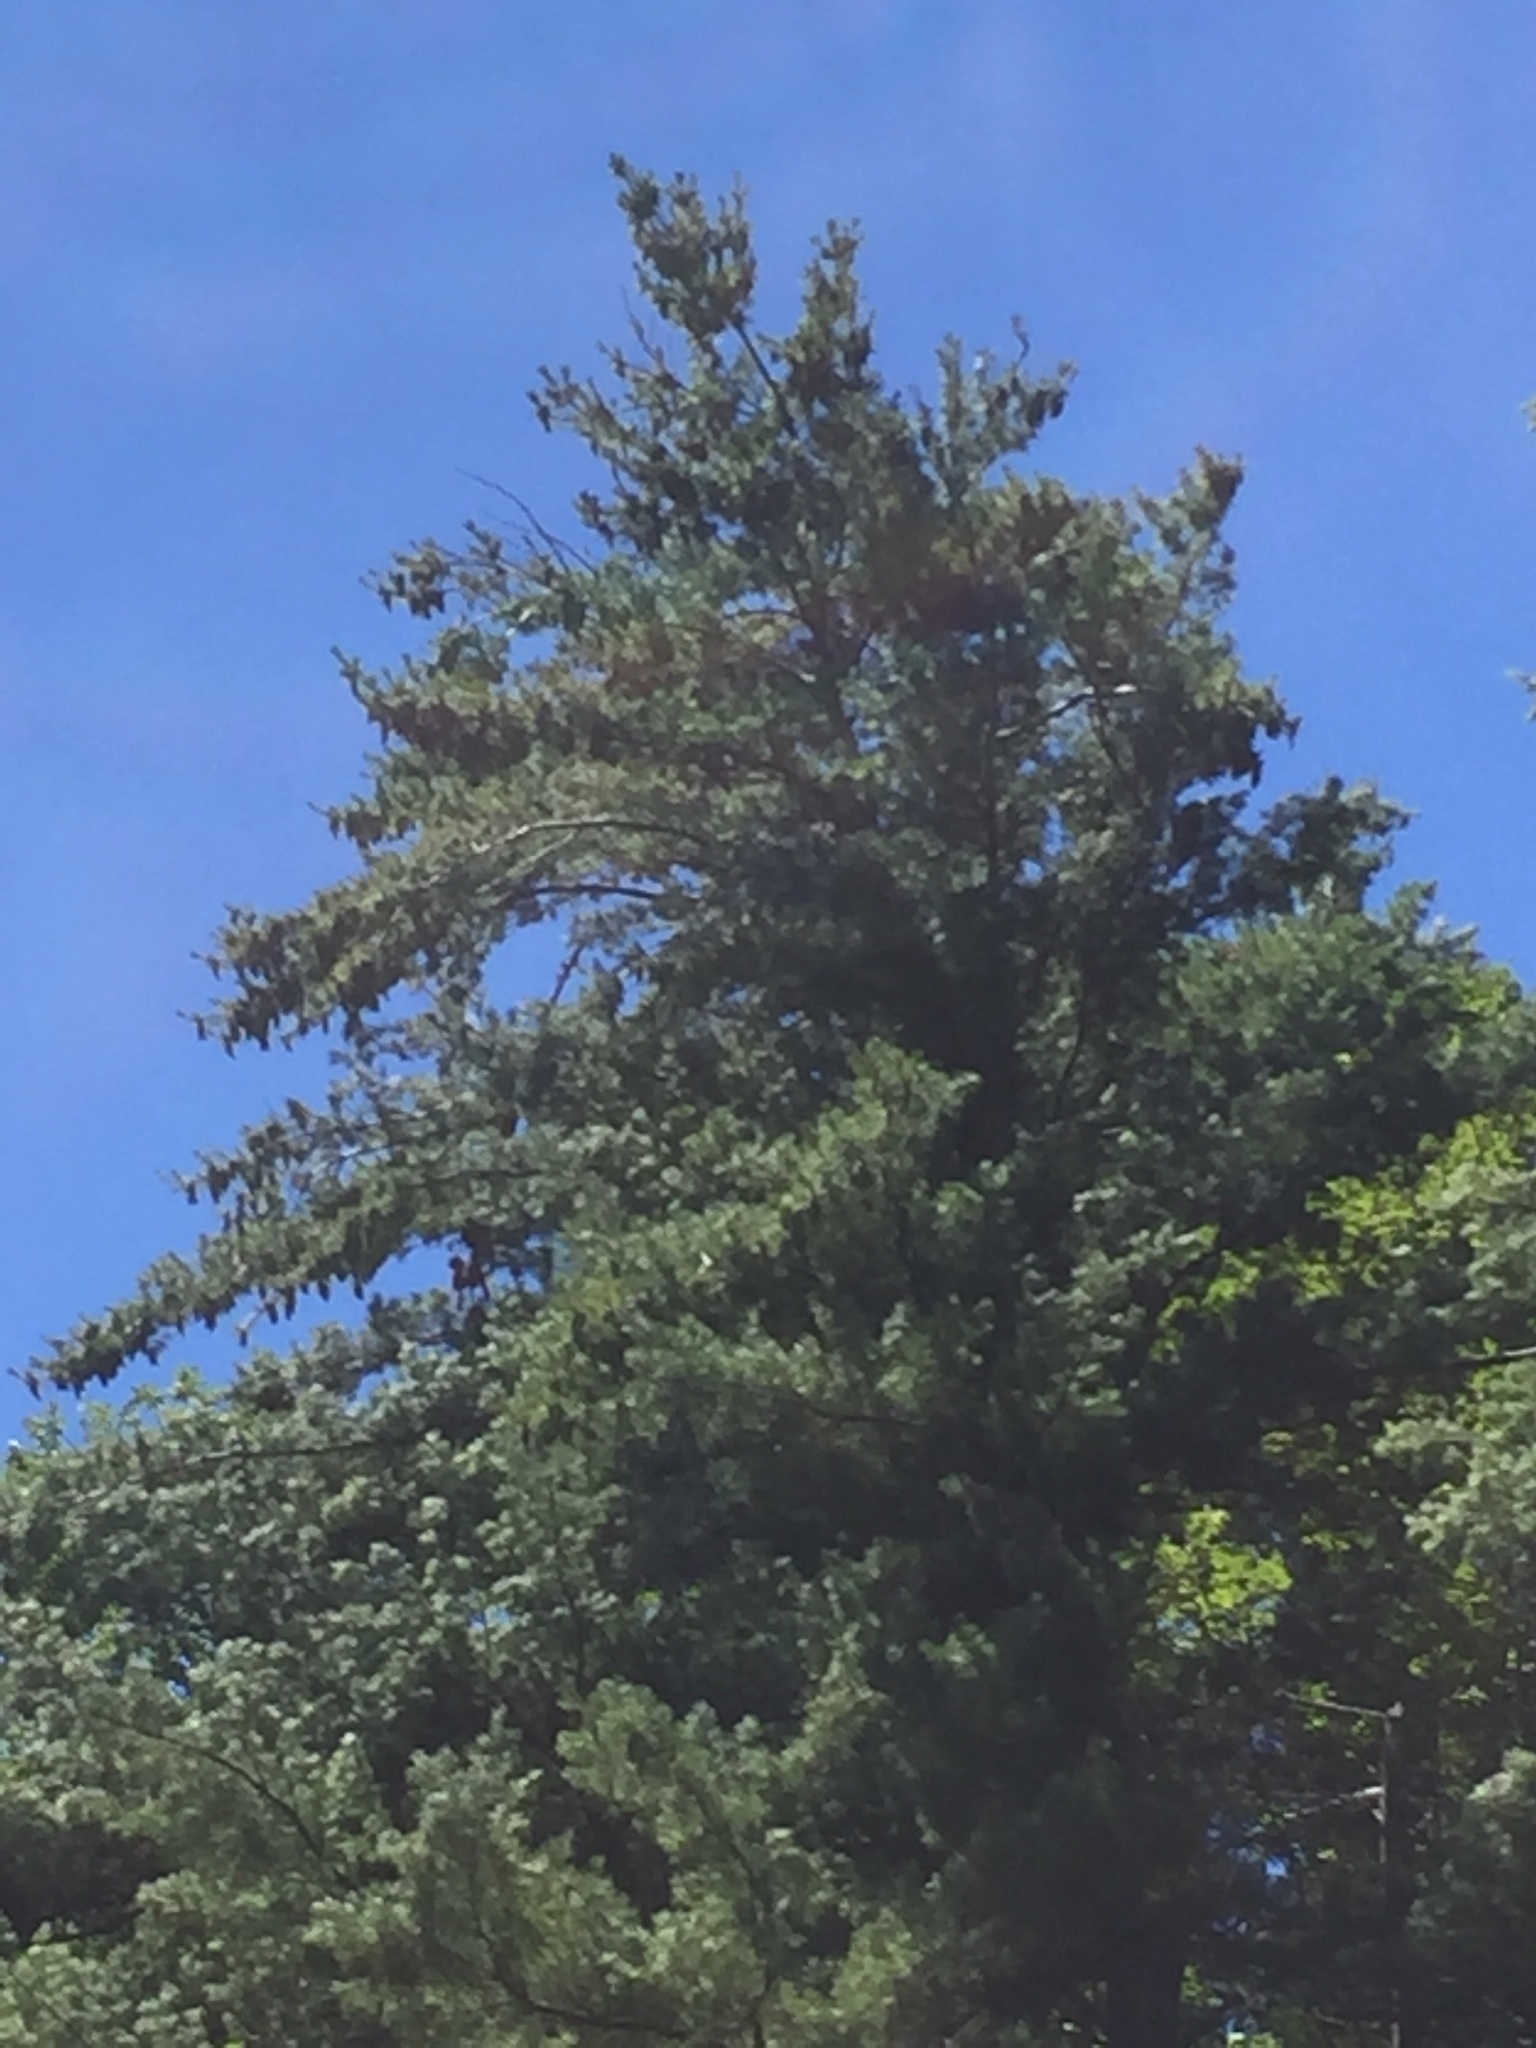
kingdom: Plantae
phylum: Tracheophyta
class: Pinopsida
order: Pinales
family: Pinaceae
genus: Pinus
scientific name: Pinus strobus
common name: Weymouth pine
